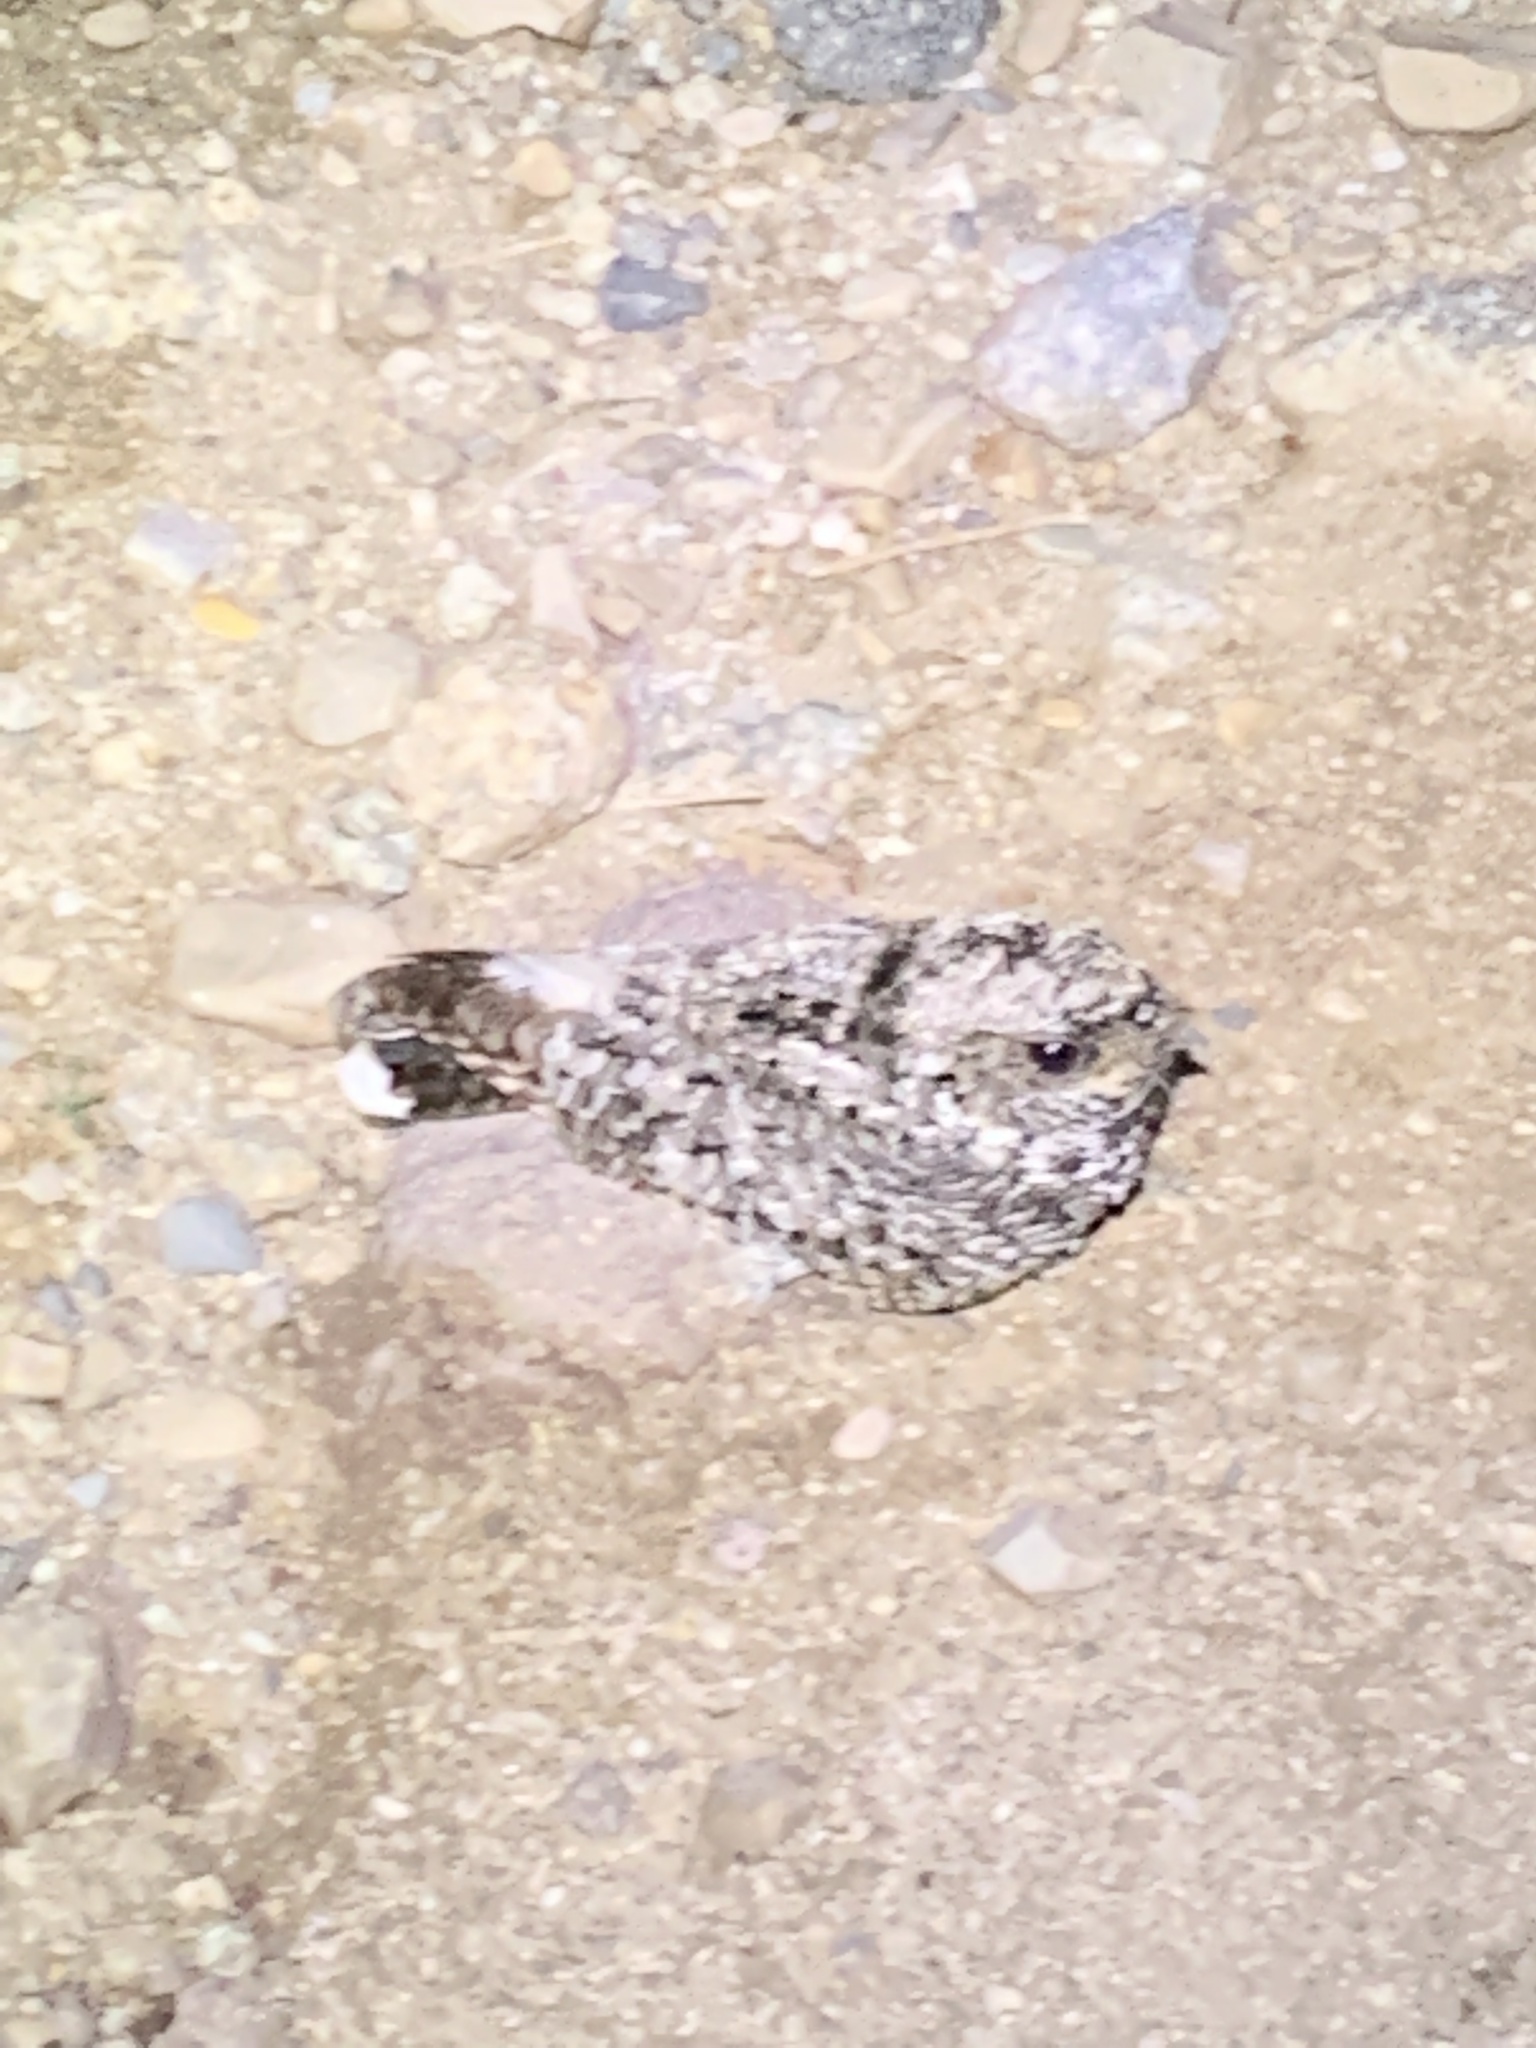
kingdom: Animalia
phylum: Chordata
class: Aves
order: Caprimulgiformes
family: Caprimulgidae
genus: Phalaenoptilus
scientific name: Phalaenoptilus nuttallii
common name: Common poorwill
